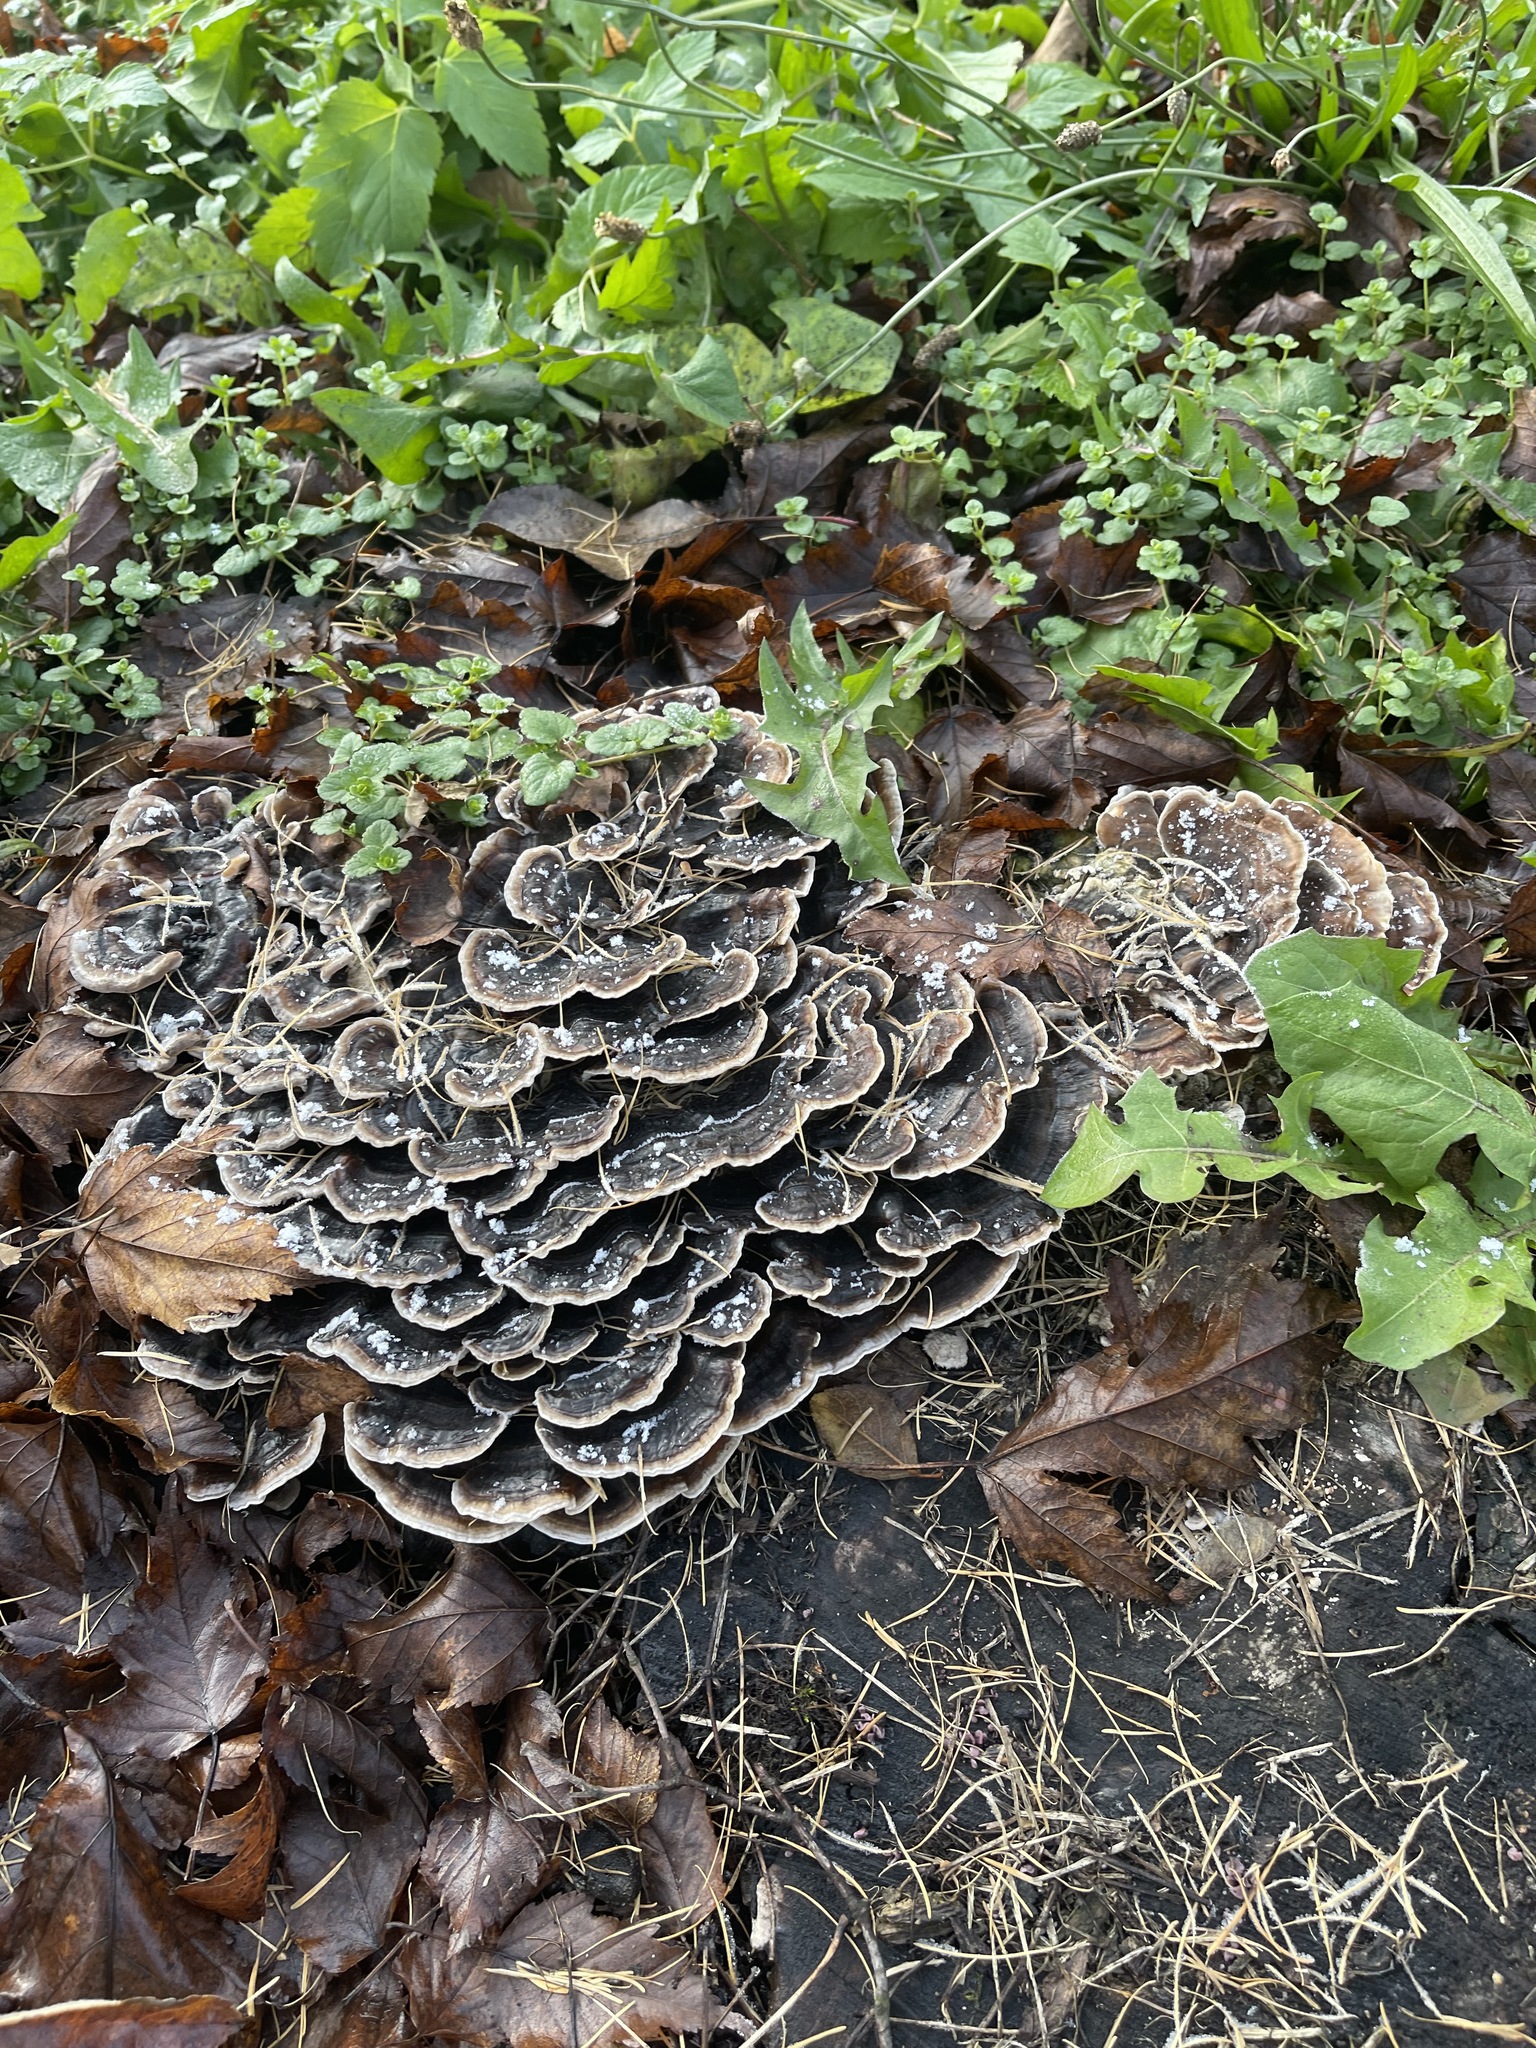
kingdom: Fungi
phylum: Basidiomycota
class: Agaricomycetes
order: Polyporales
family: Polyporaceae
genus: Trametes
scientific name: Trametes versicolor
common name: Turkeytail
